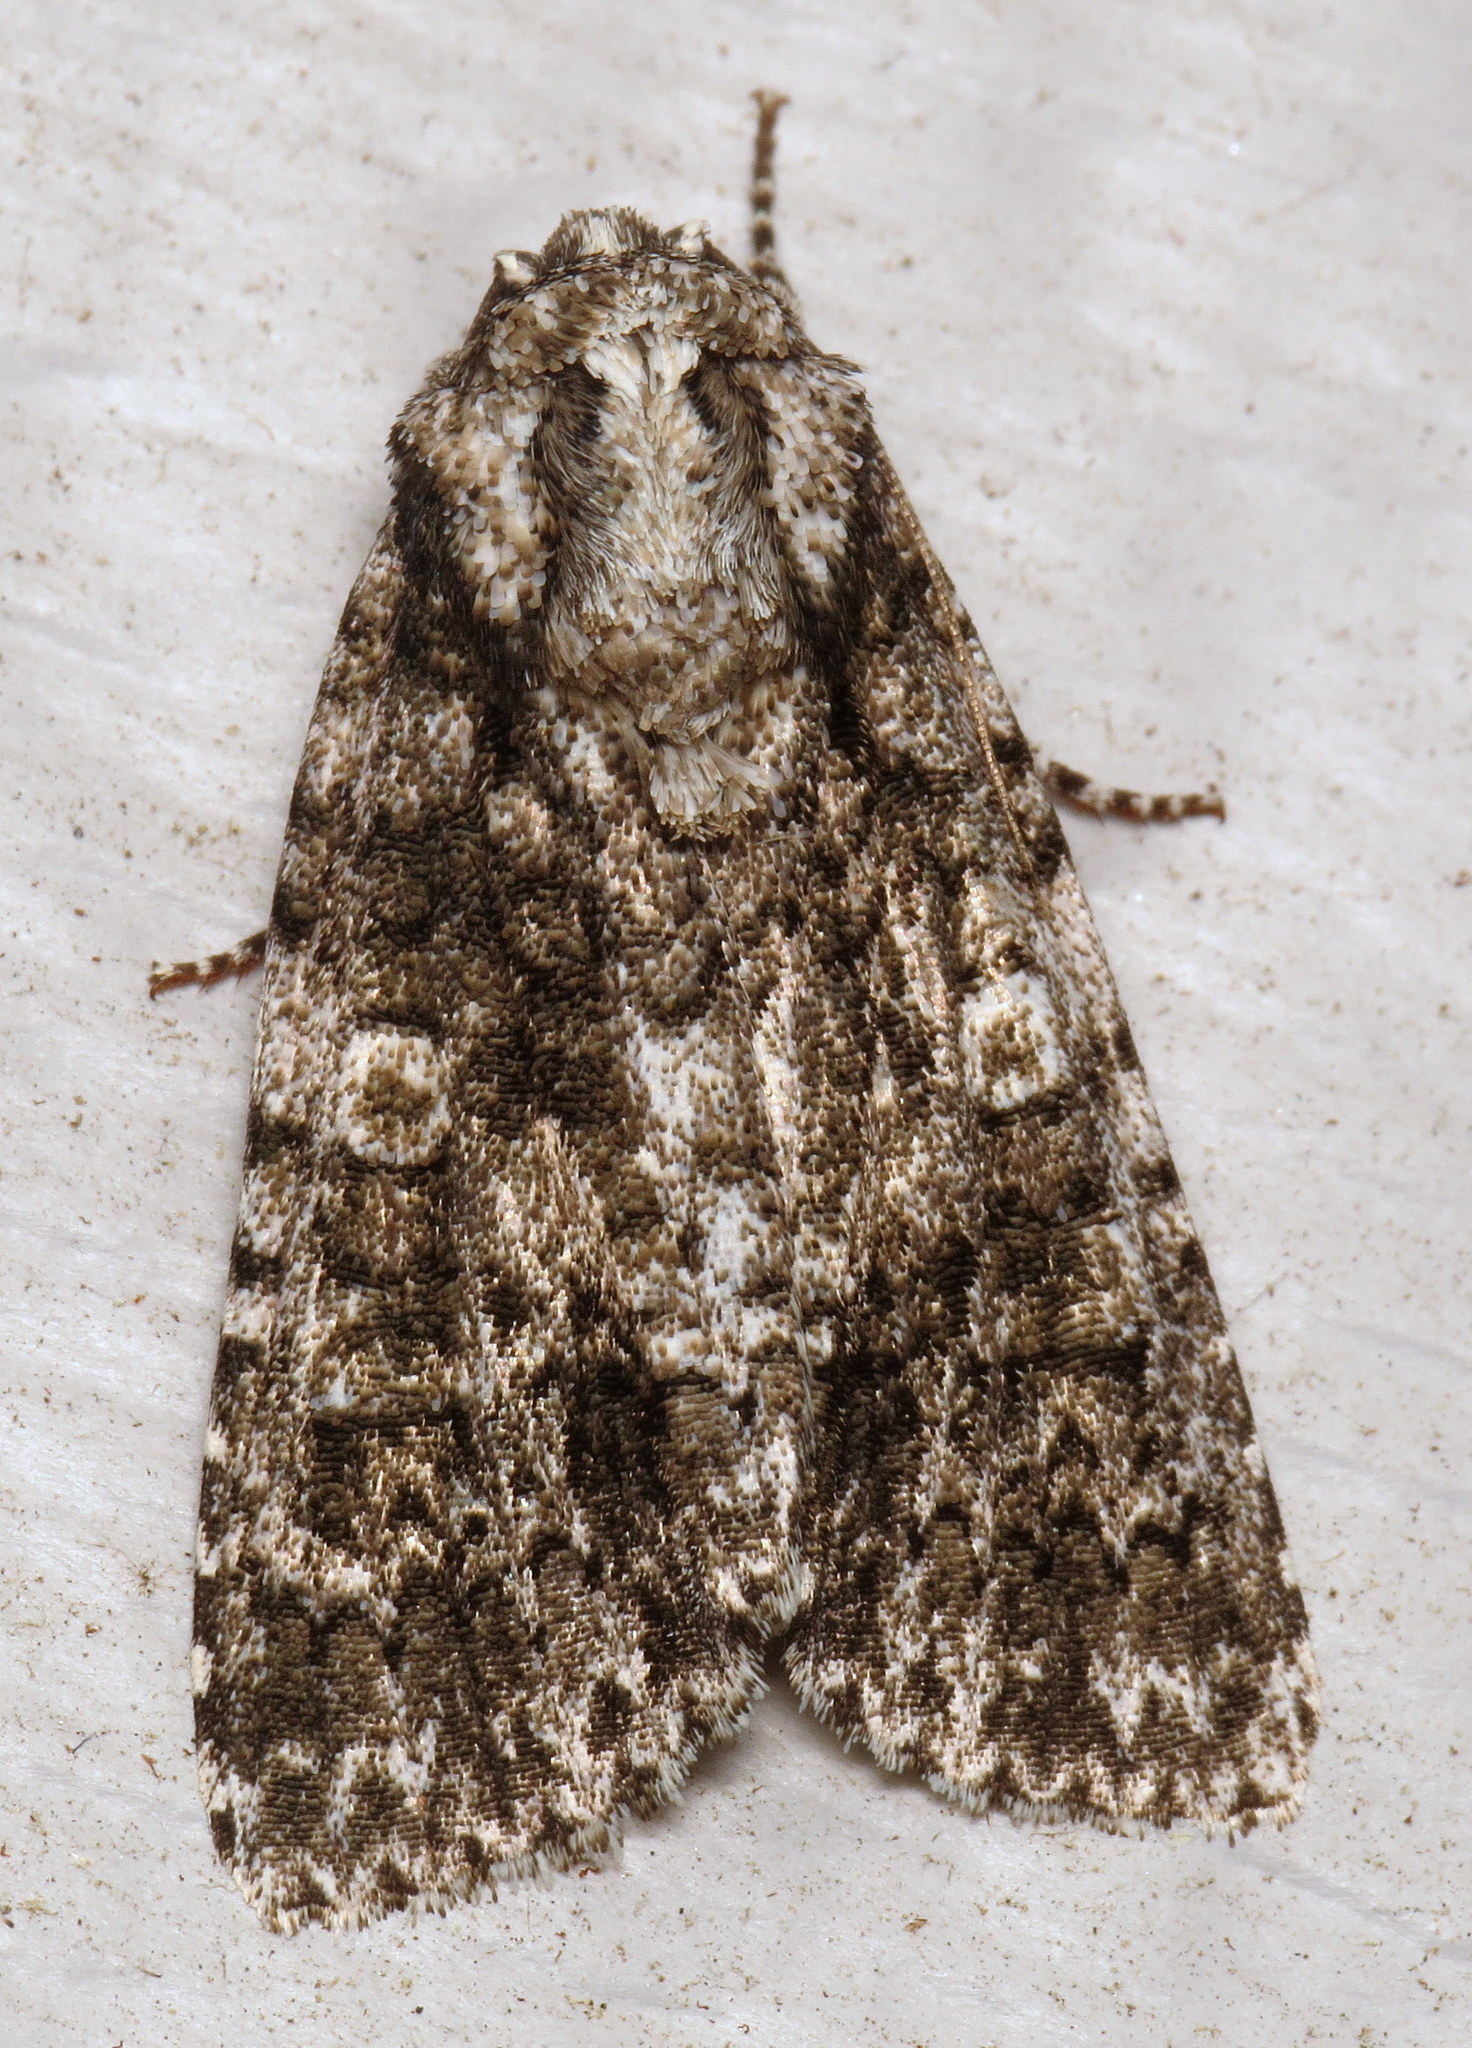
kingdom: Animalia
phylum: Arthropoda
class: Insecta
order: Lepidoptera
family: Noctuidae
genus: Acronicta
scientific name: Acronicta afflicta
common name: Afflicted dagger moth
